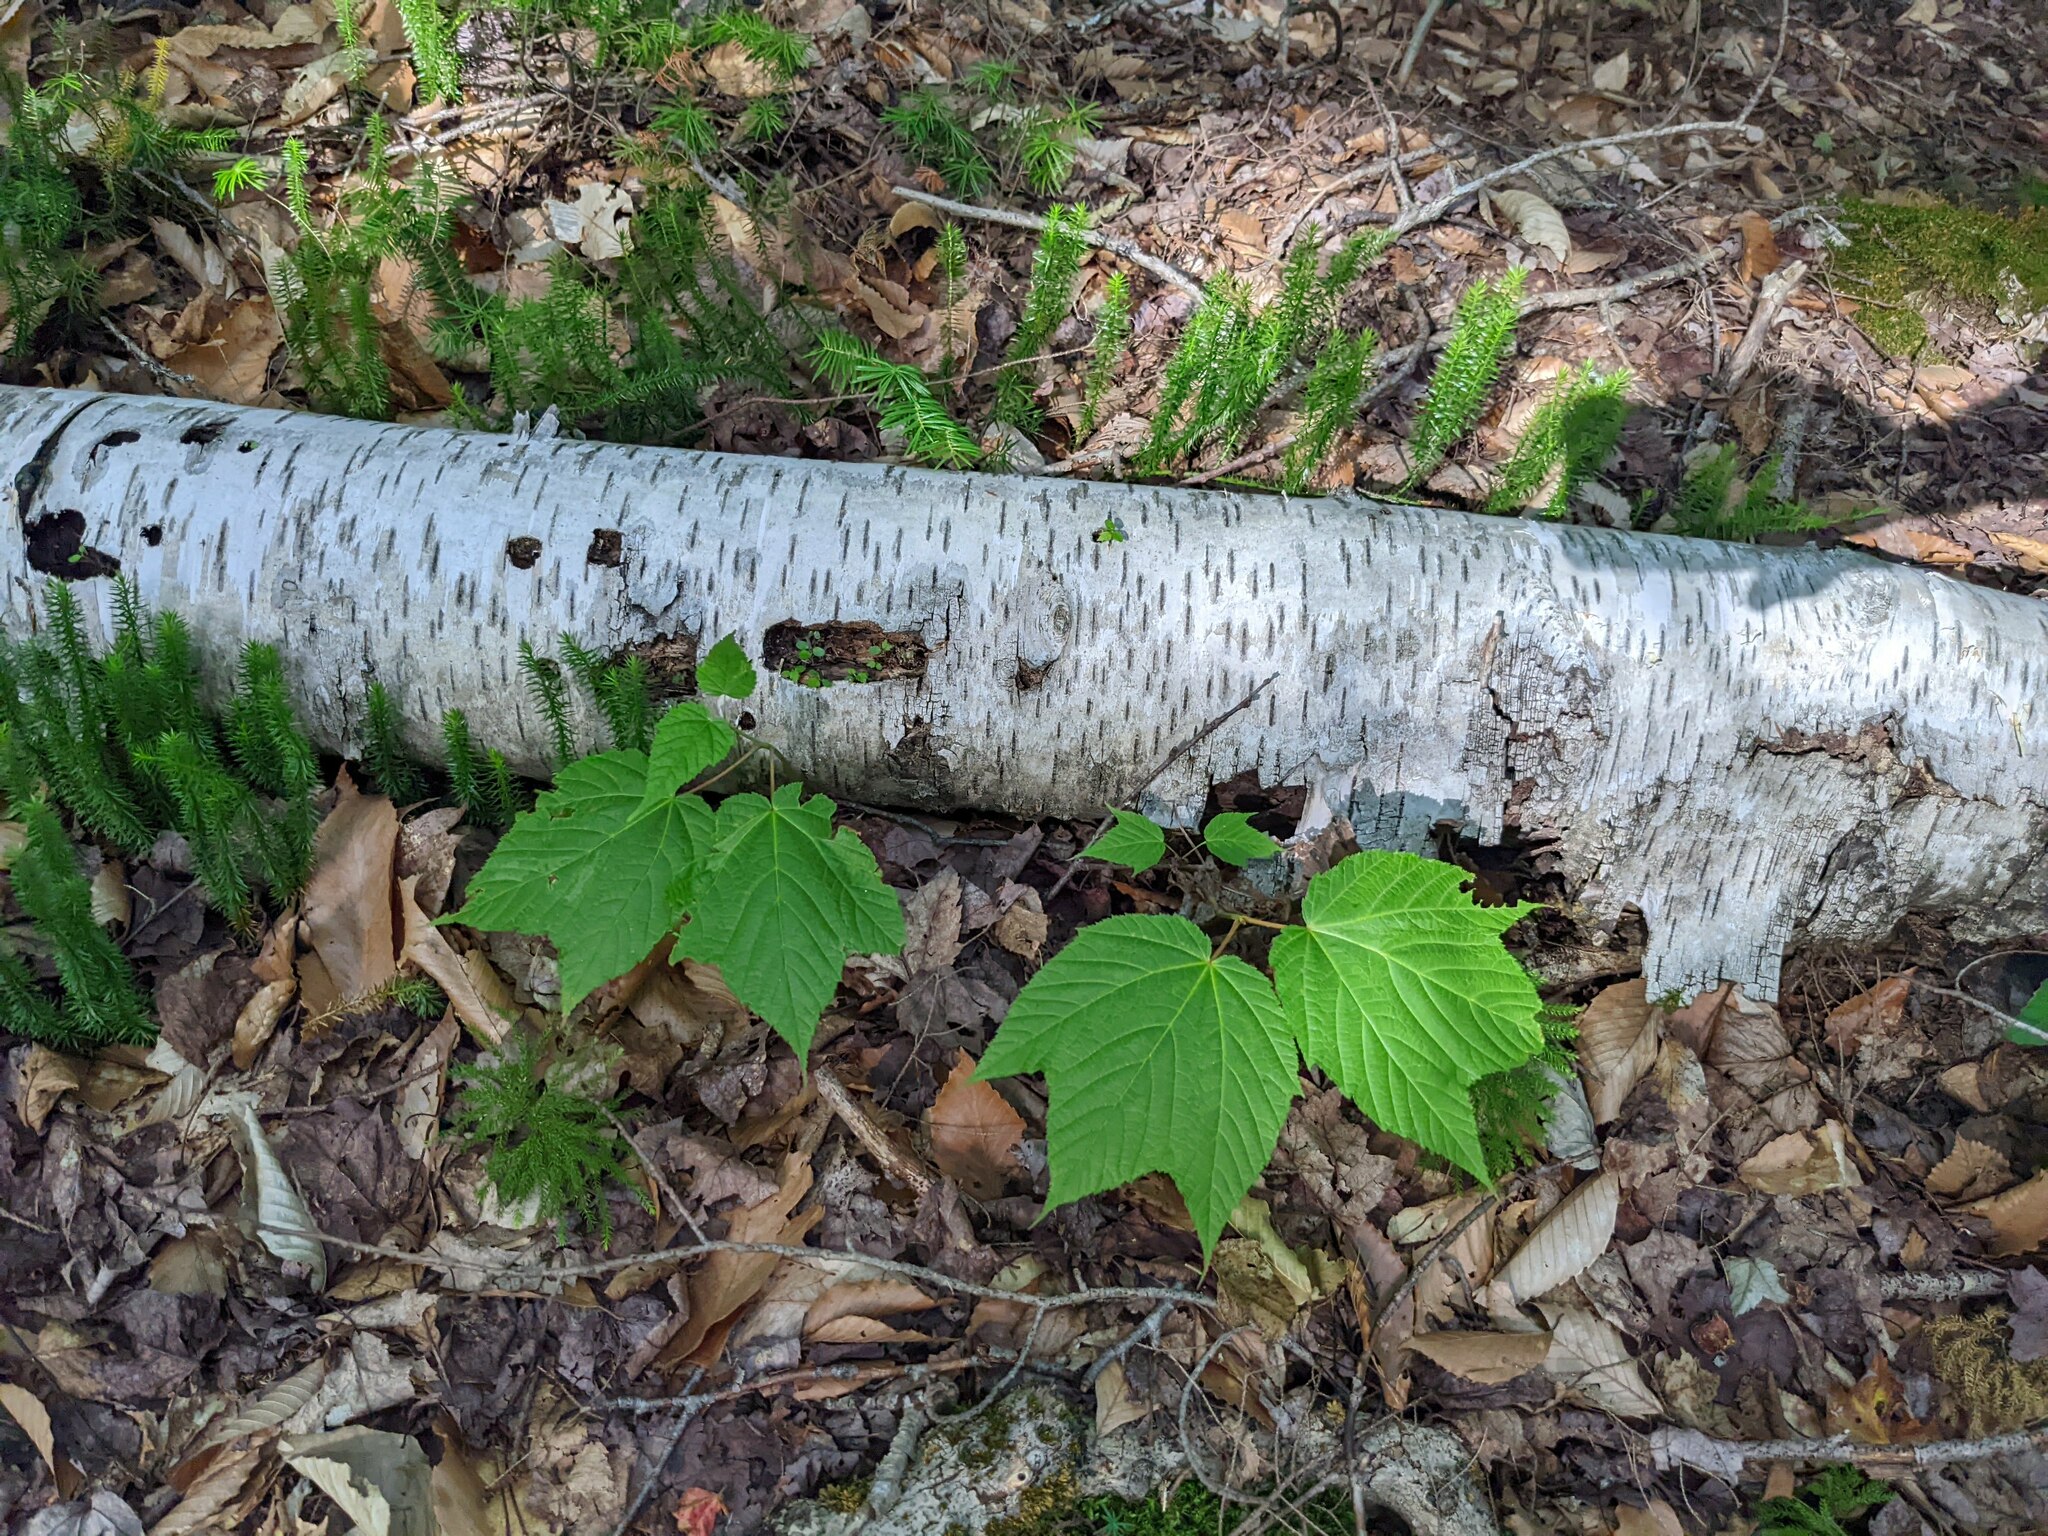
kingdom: Plantae
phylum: Tracheophyta
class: Magnoliopsida
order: Sapindales
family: Sapindaceae
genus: Acer
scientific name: Acer pensylvanicum
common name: Moosewood
